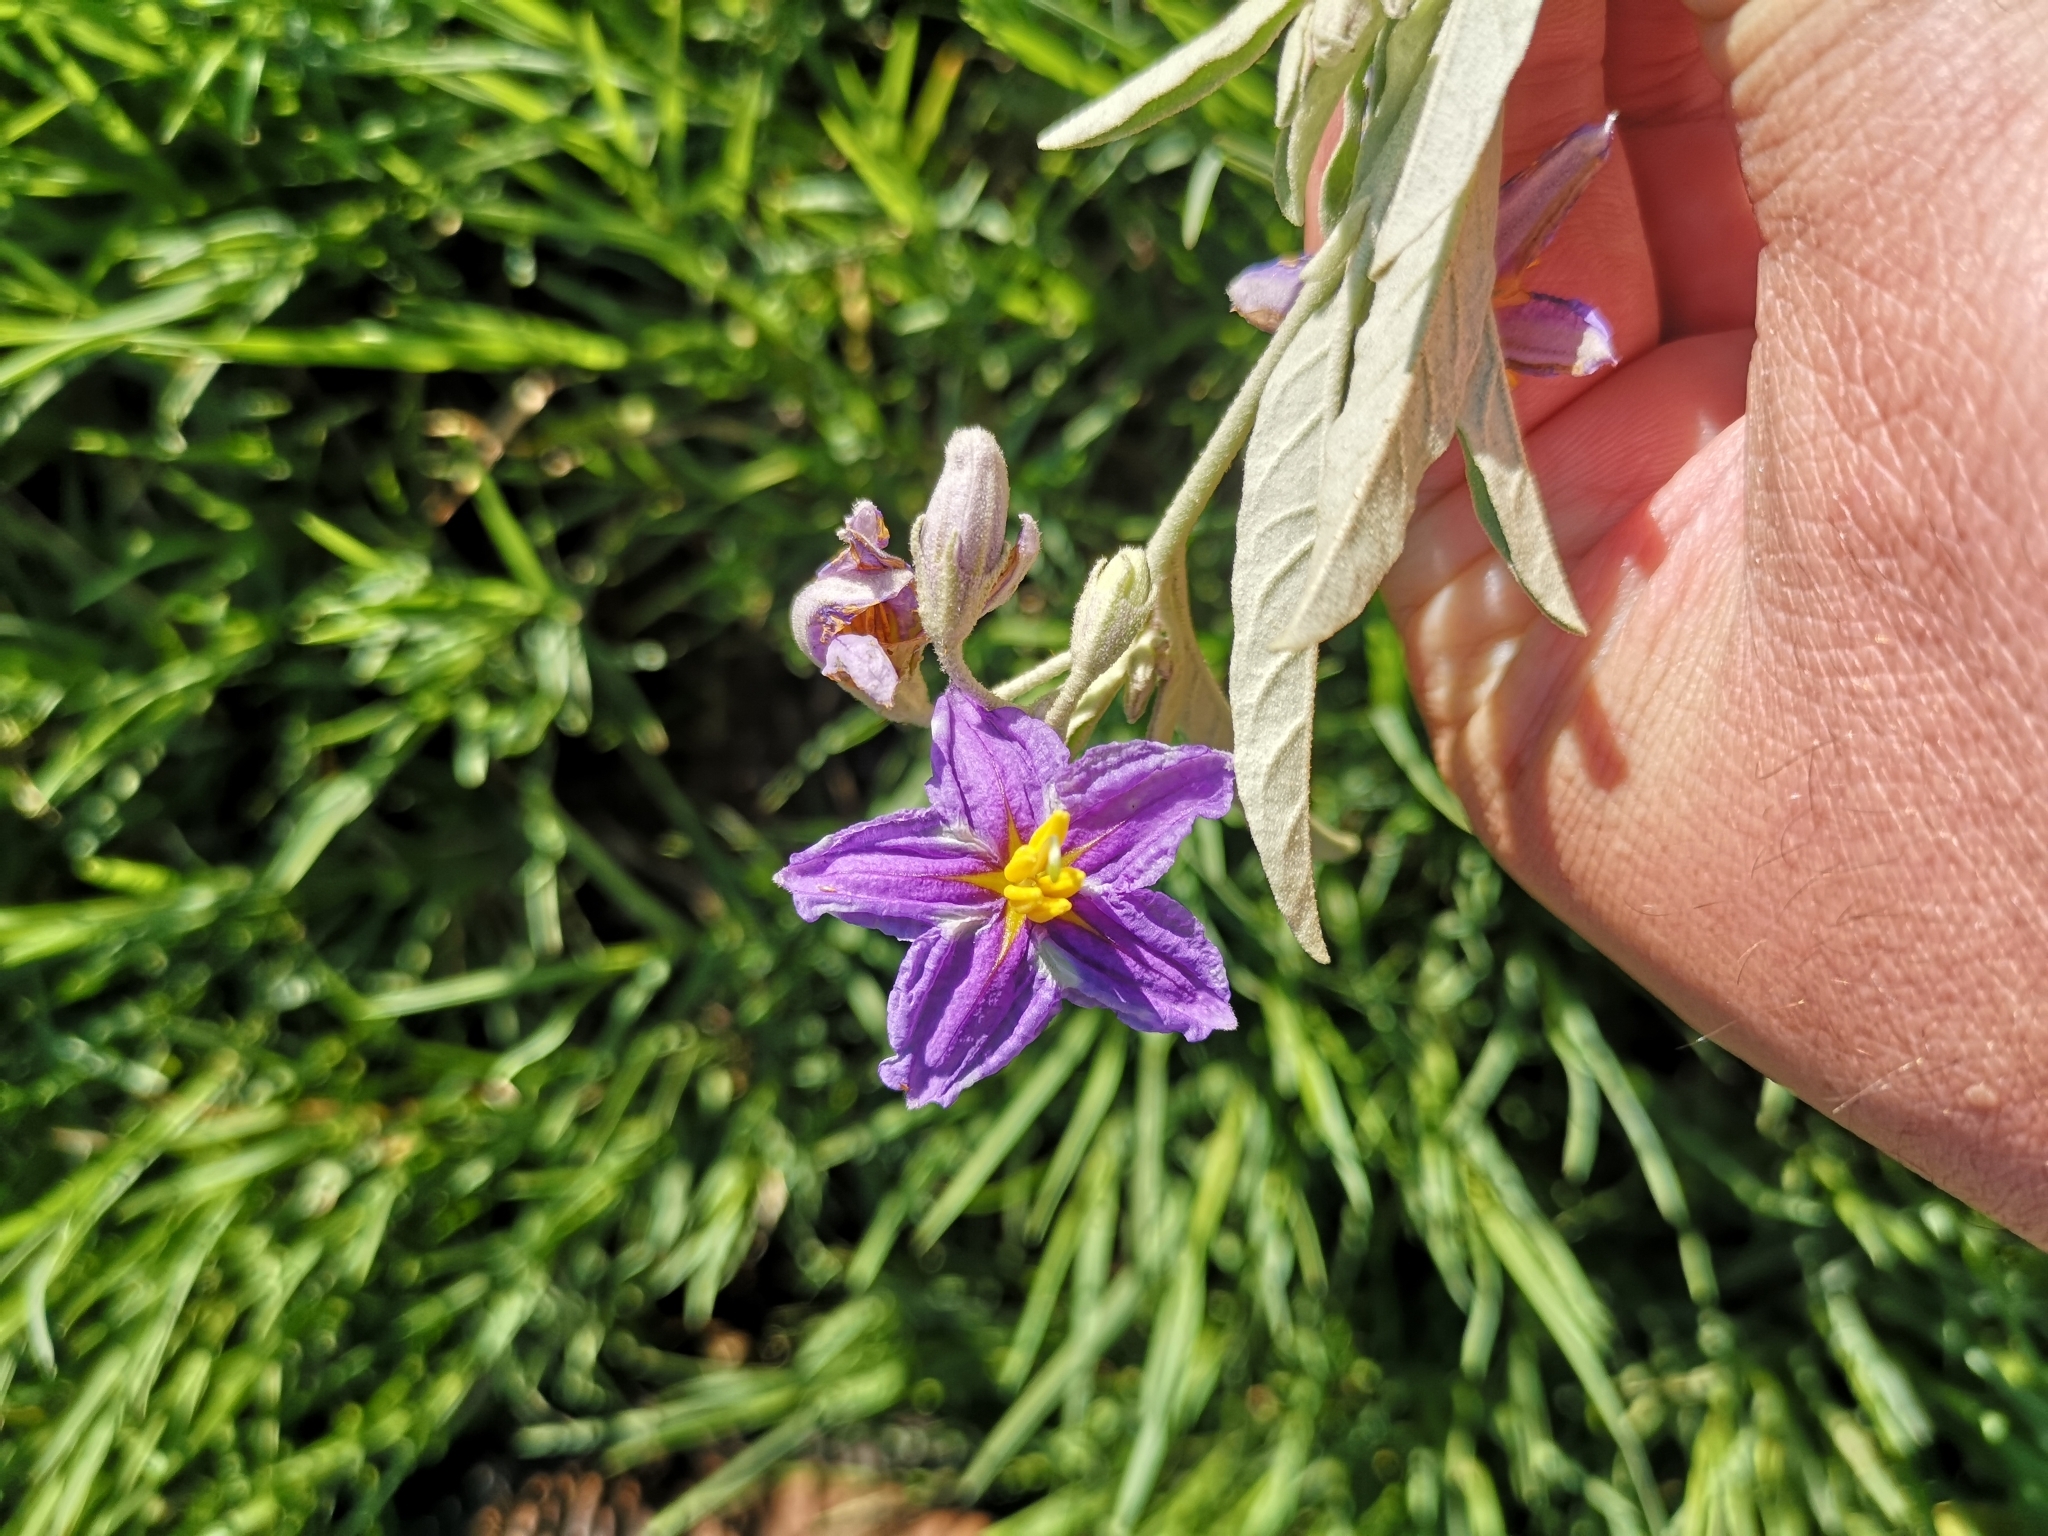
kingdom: Plantae
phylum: Tracheophyta
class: Magnoliopsida
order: Solanales
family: Solanaceae
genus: Solanum
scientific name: Solanum elaeagnifolium
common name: Silverleaf nightshade
